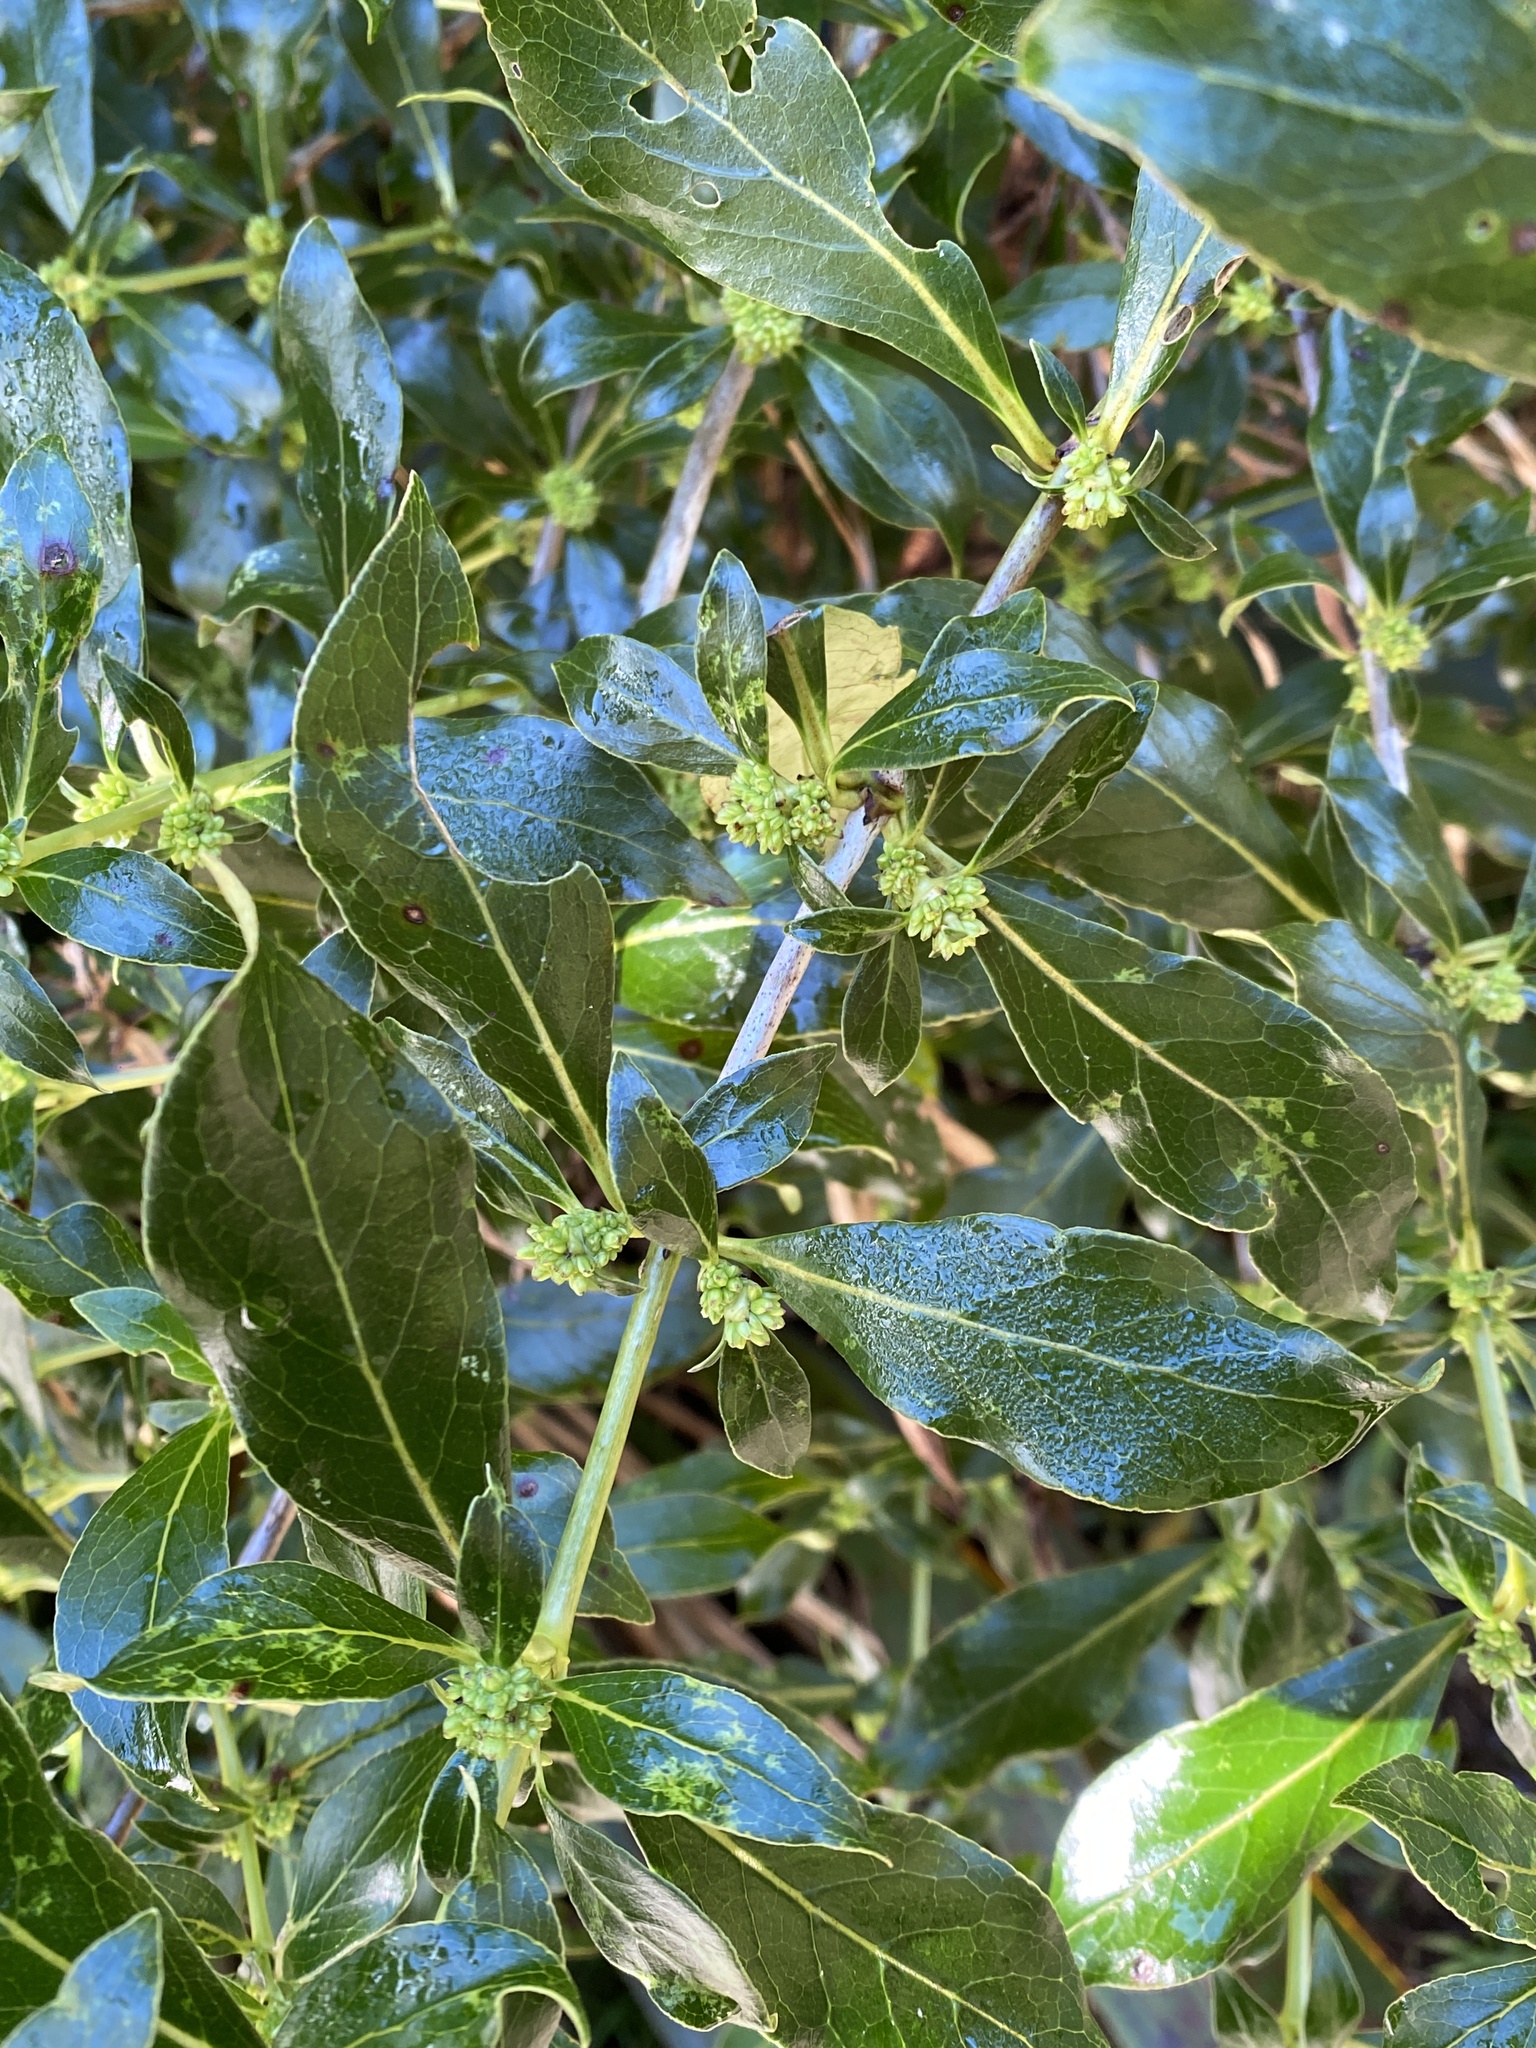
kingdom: Plantae
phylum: Tracheophyta
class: Magnoliopsida
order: Gentianales
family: Rubiaceae
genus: Coprosma
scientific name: Coprosma robusta
